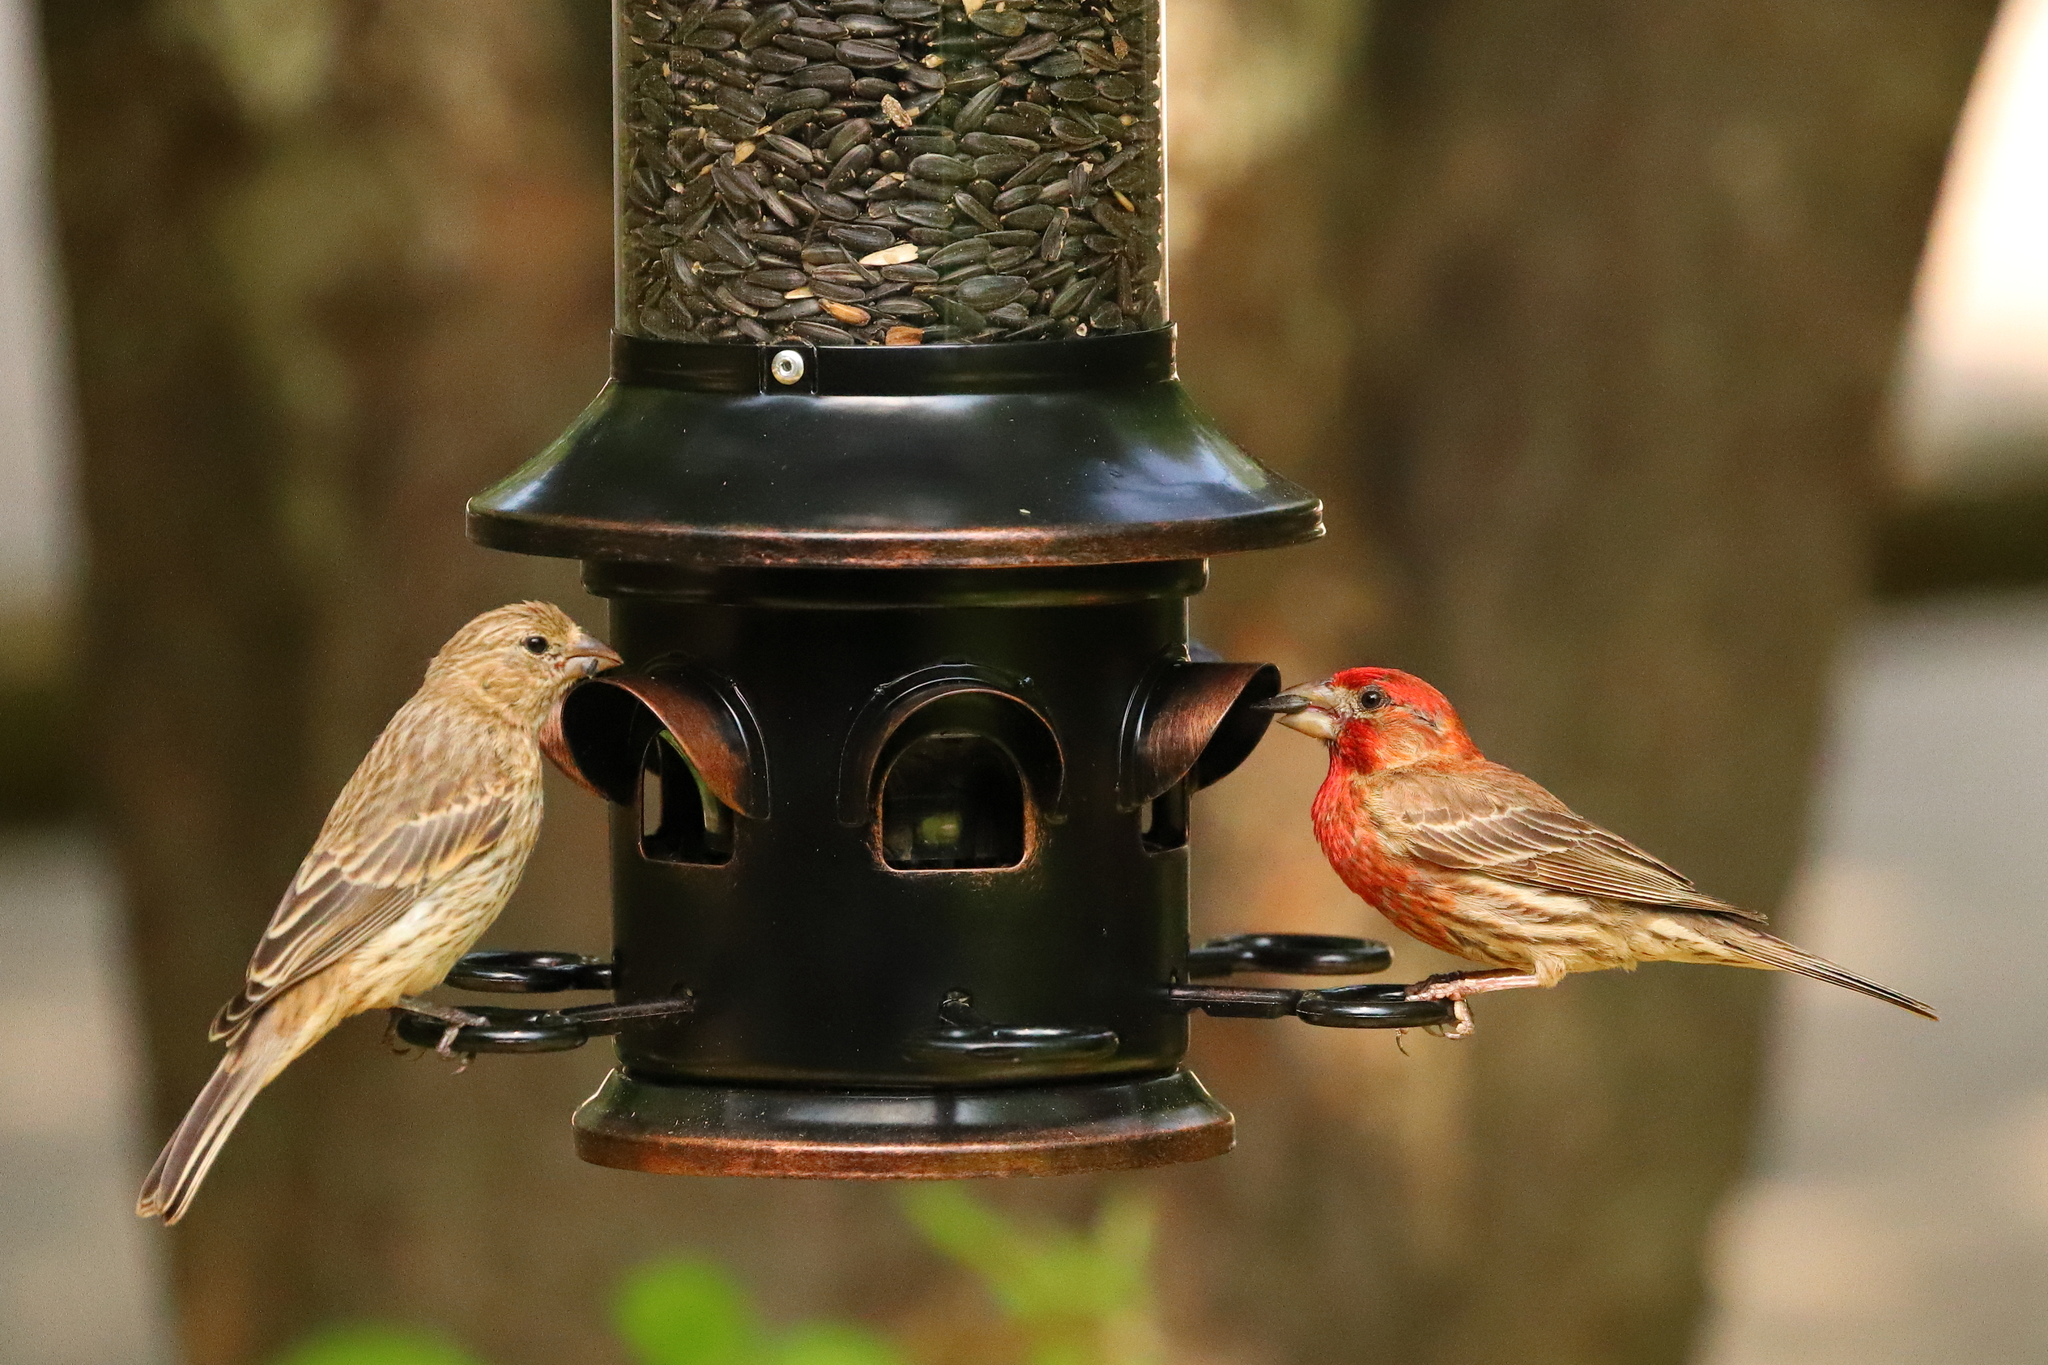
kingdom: Animalia
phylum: Chordata
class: Aves
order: Passeriformes
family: Fringillidae
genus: Haemorhous
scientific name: Haemorhous mexicanus
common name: House finch
